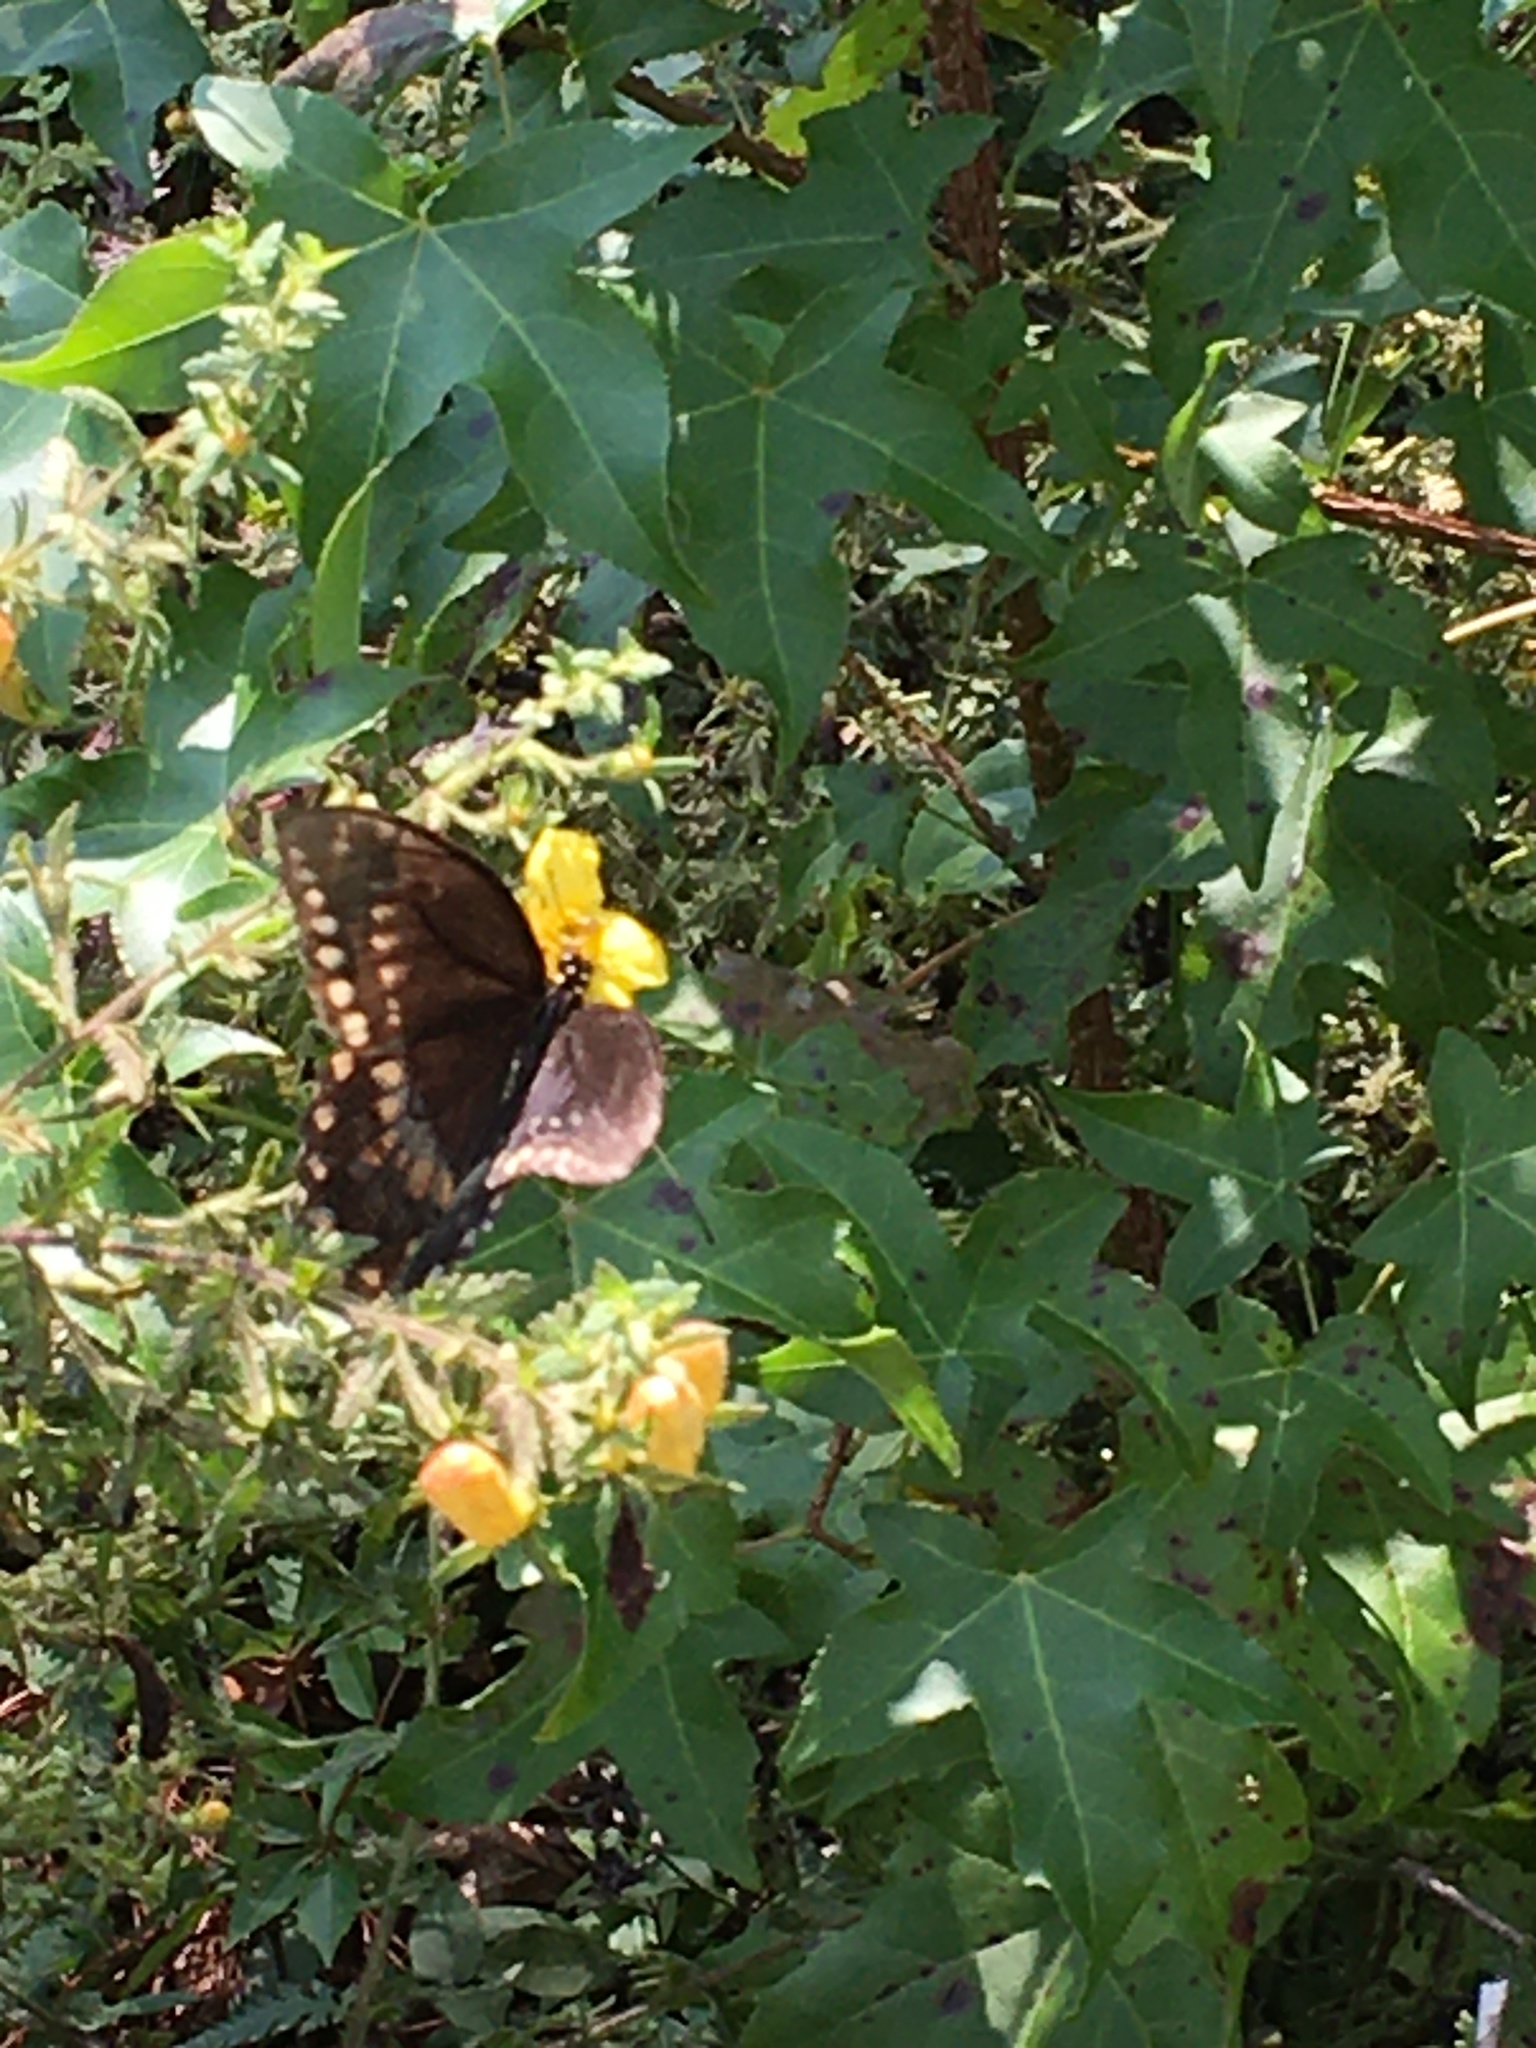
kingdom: Animalia
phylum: Arthropoda
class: Insecta
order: Lepidoptera
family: Papilionidae
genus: Papilio
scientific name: Papilio troilus
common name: Spicebush swallowtail
